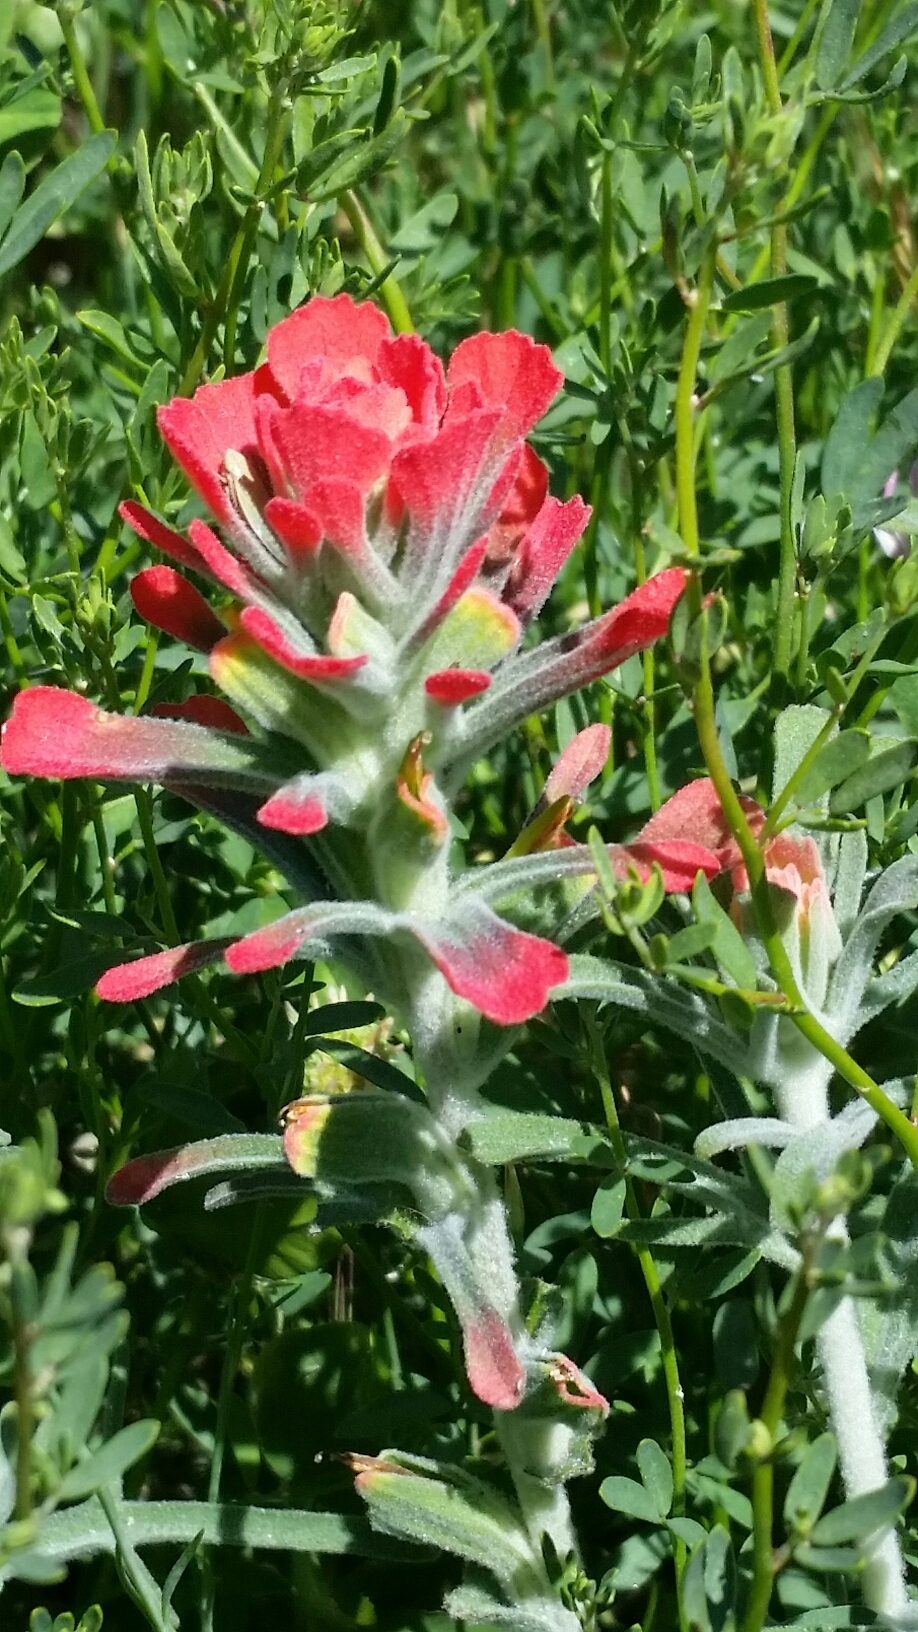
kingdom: Plantae
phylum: Tracheophyta
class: Magnoliopsida
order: Lamiales
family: Orobanchaceae
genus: Castilleja
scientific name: Castilleja foliolosa
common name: Woolly indian paintbrush
